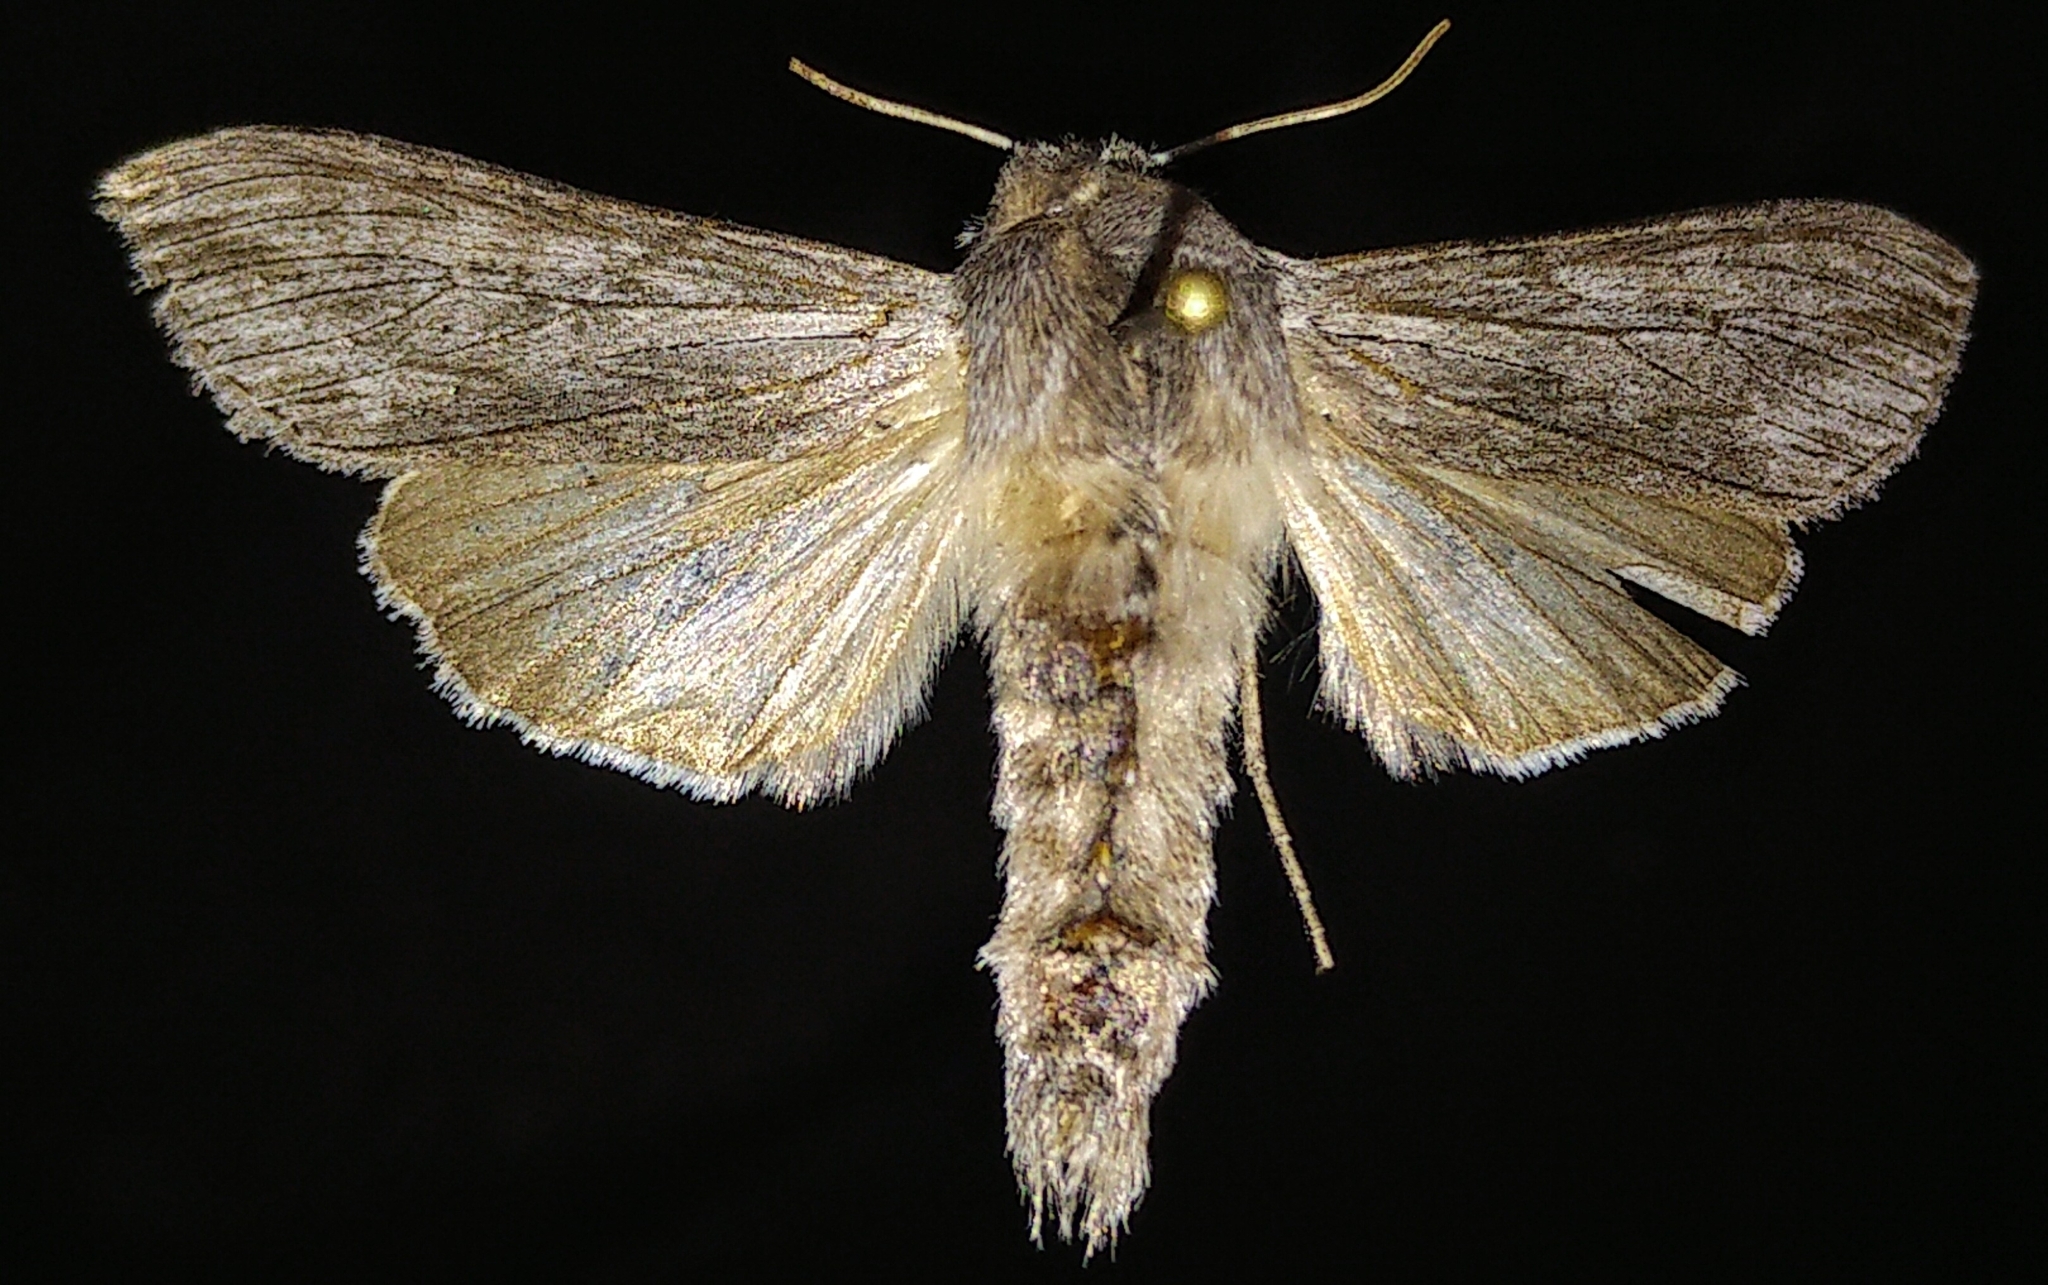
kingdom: Animalia
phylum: Arthropoda
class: Insecta
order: Lepidoptera
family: Noctuidae
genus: Cucullia
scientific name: Cucullia speyeri
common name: Speyer's cucullia moth
